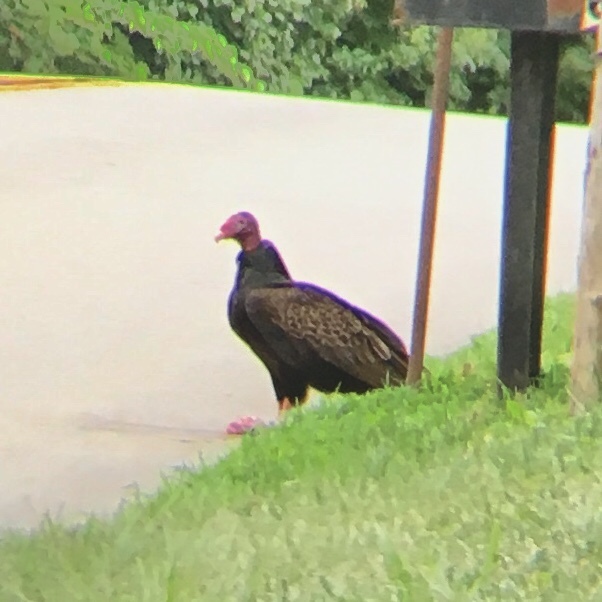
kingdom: Animalia
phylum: Chordata
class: Aves
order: Accipitriformes
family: Cathartidae
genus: Cathartes
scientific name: Cathartes aura
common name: Turkey vulture
